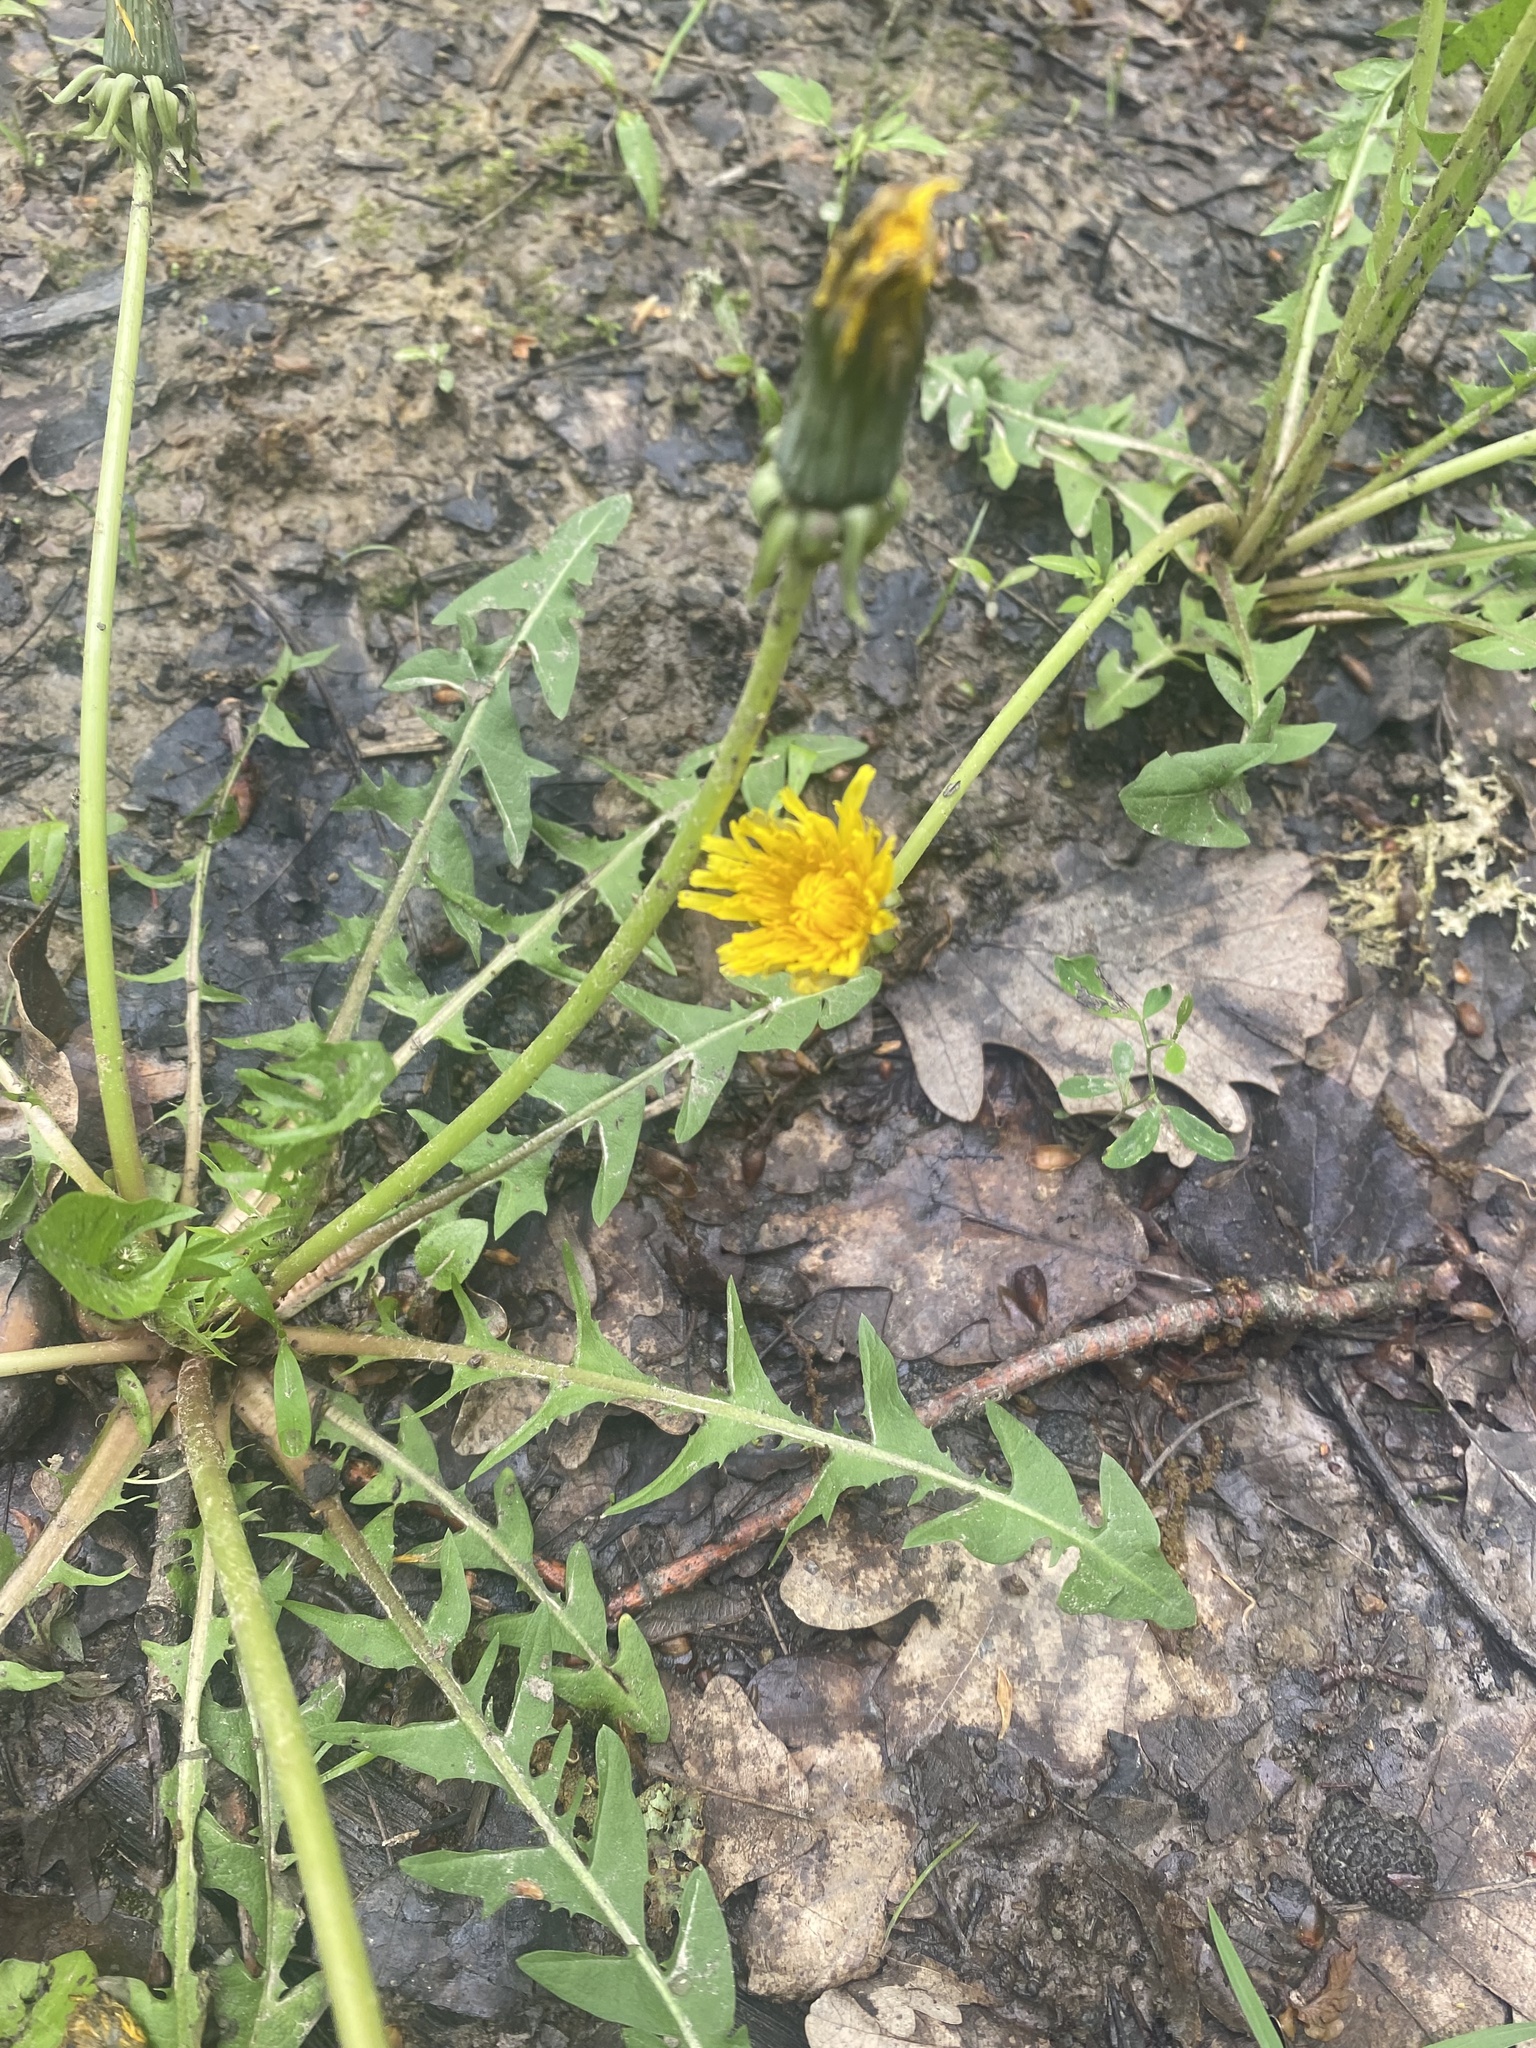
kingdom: Plantae
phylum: Tracheophyta
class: Magnoliopsida
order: Asterales
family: Asteraceae
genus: Taraxacum
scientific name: Taraxacum officinale
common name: Common dandelion
